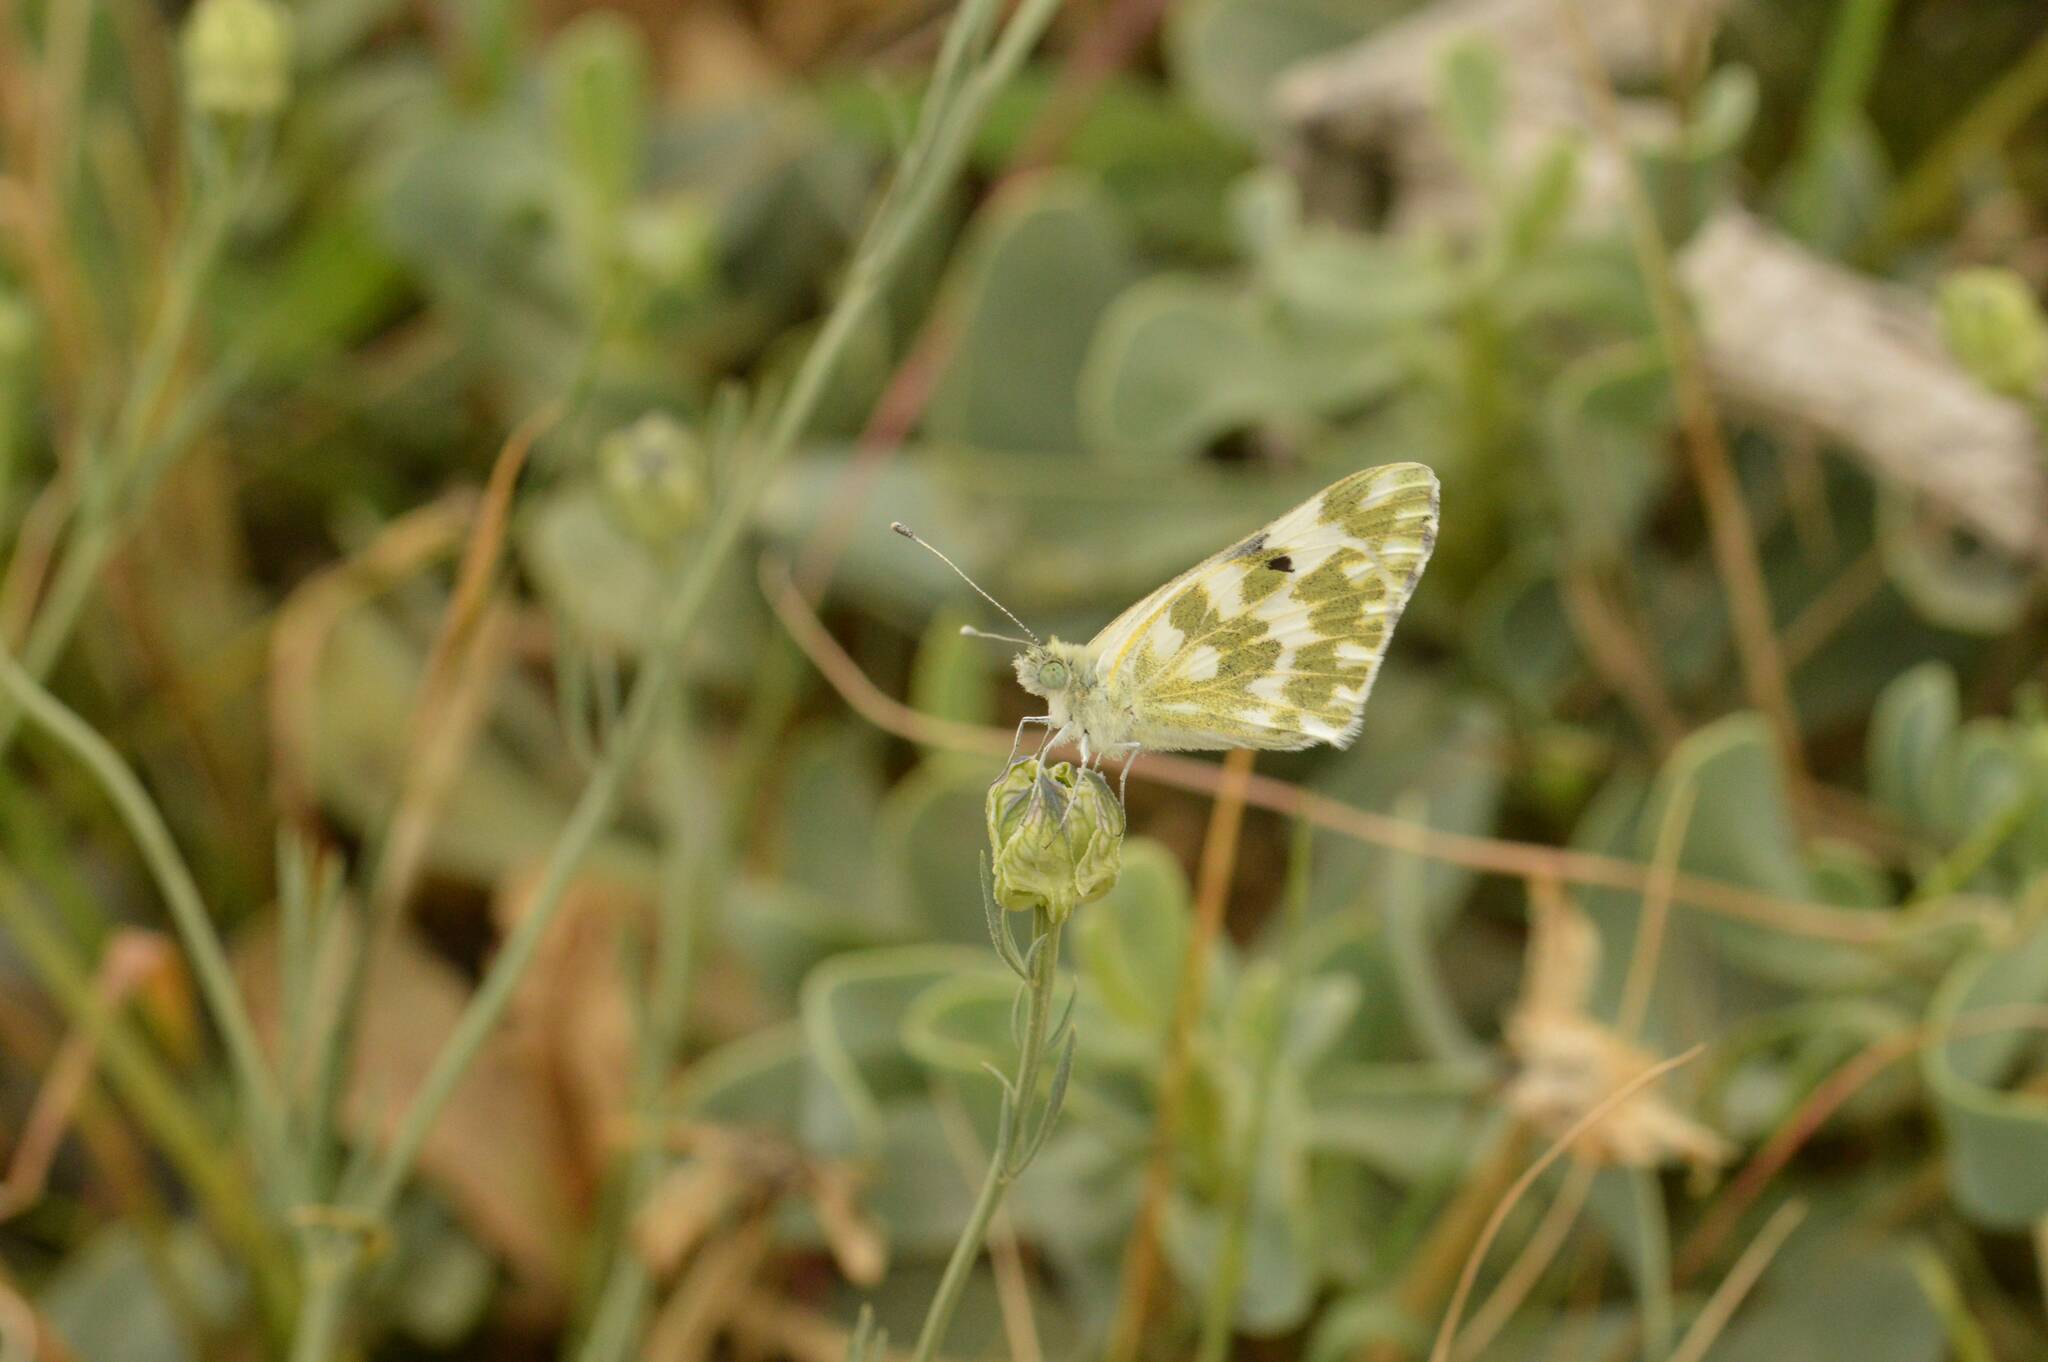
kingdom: Animalia
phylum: Arthropoda
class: Insecta
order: Lepidoptera
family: Pieridae
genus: Pontia
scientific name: Pontia daplidice
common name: Bath white
